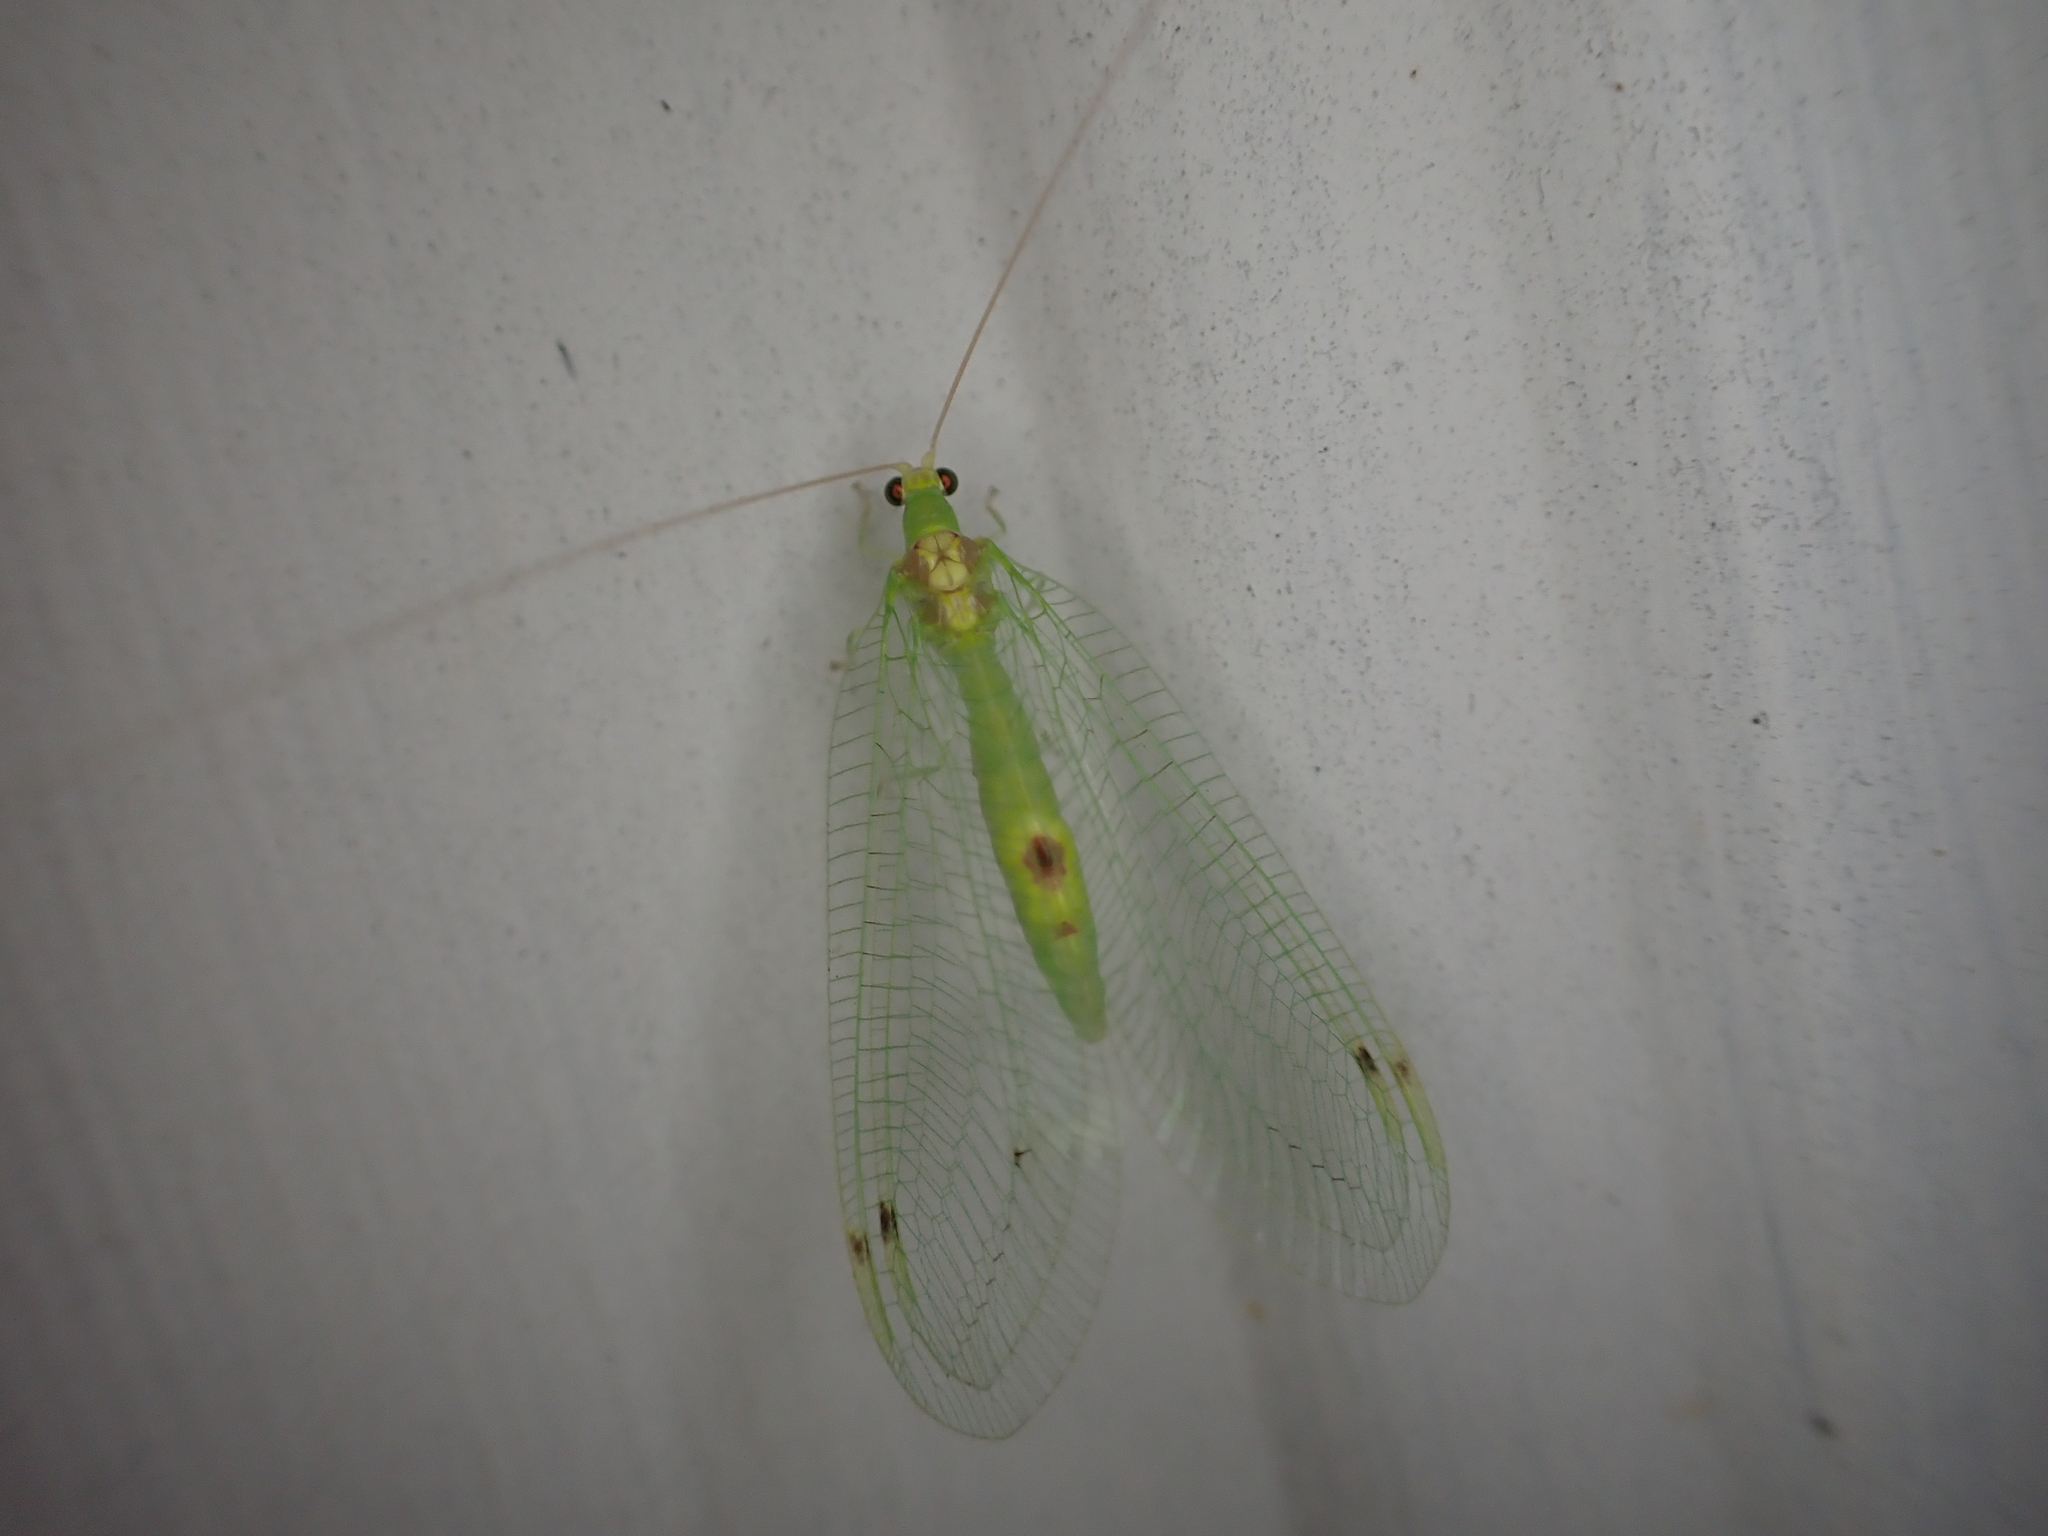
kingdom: Animalia
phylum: Arthropoda
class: Insecta
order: Neuroptera
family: Chrysopidae
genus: Leucochrysa
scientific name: Leucochrysa insularis
